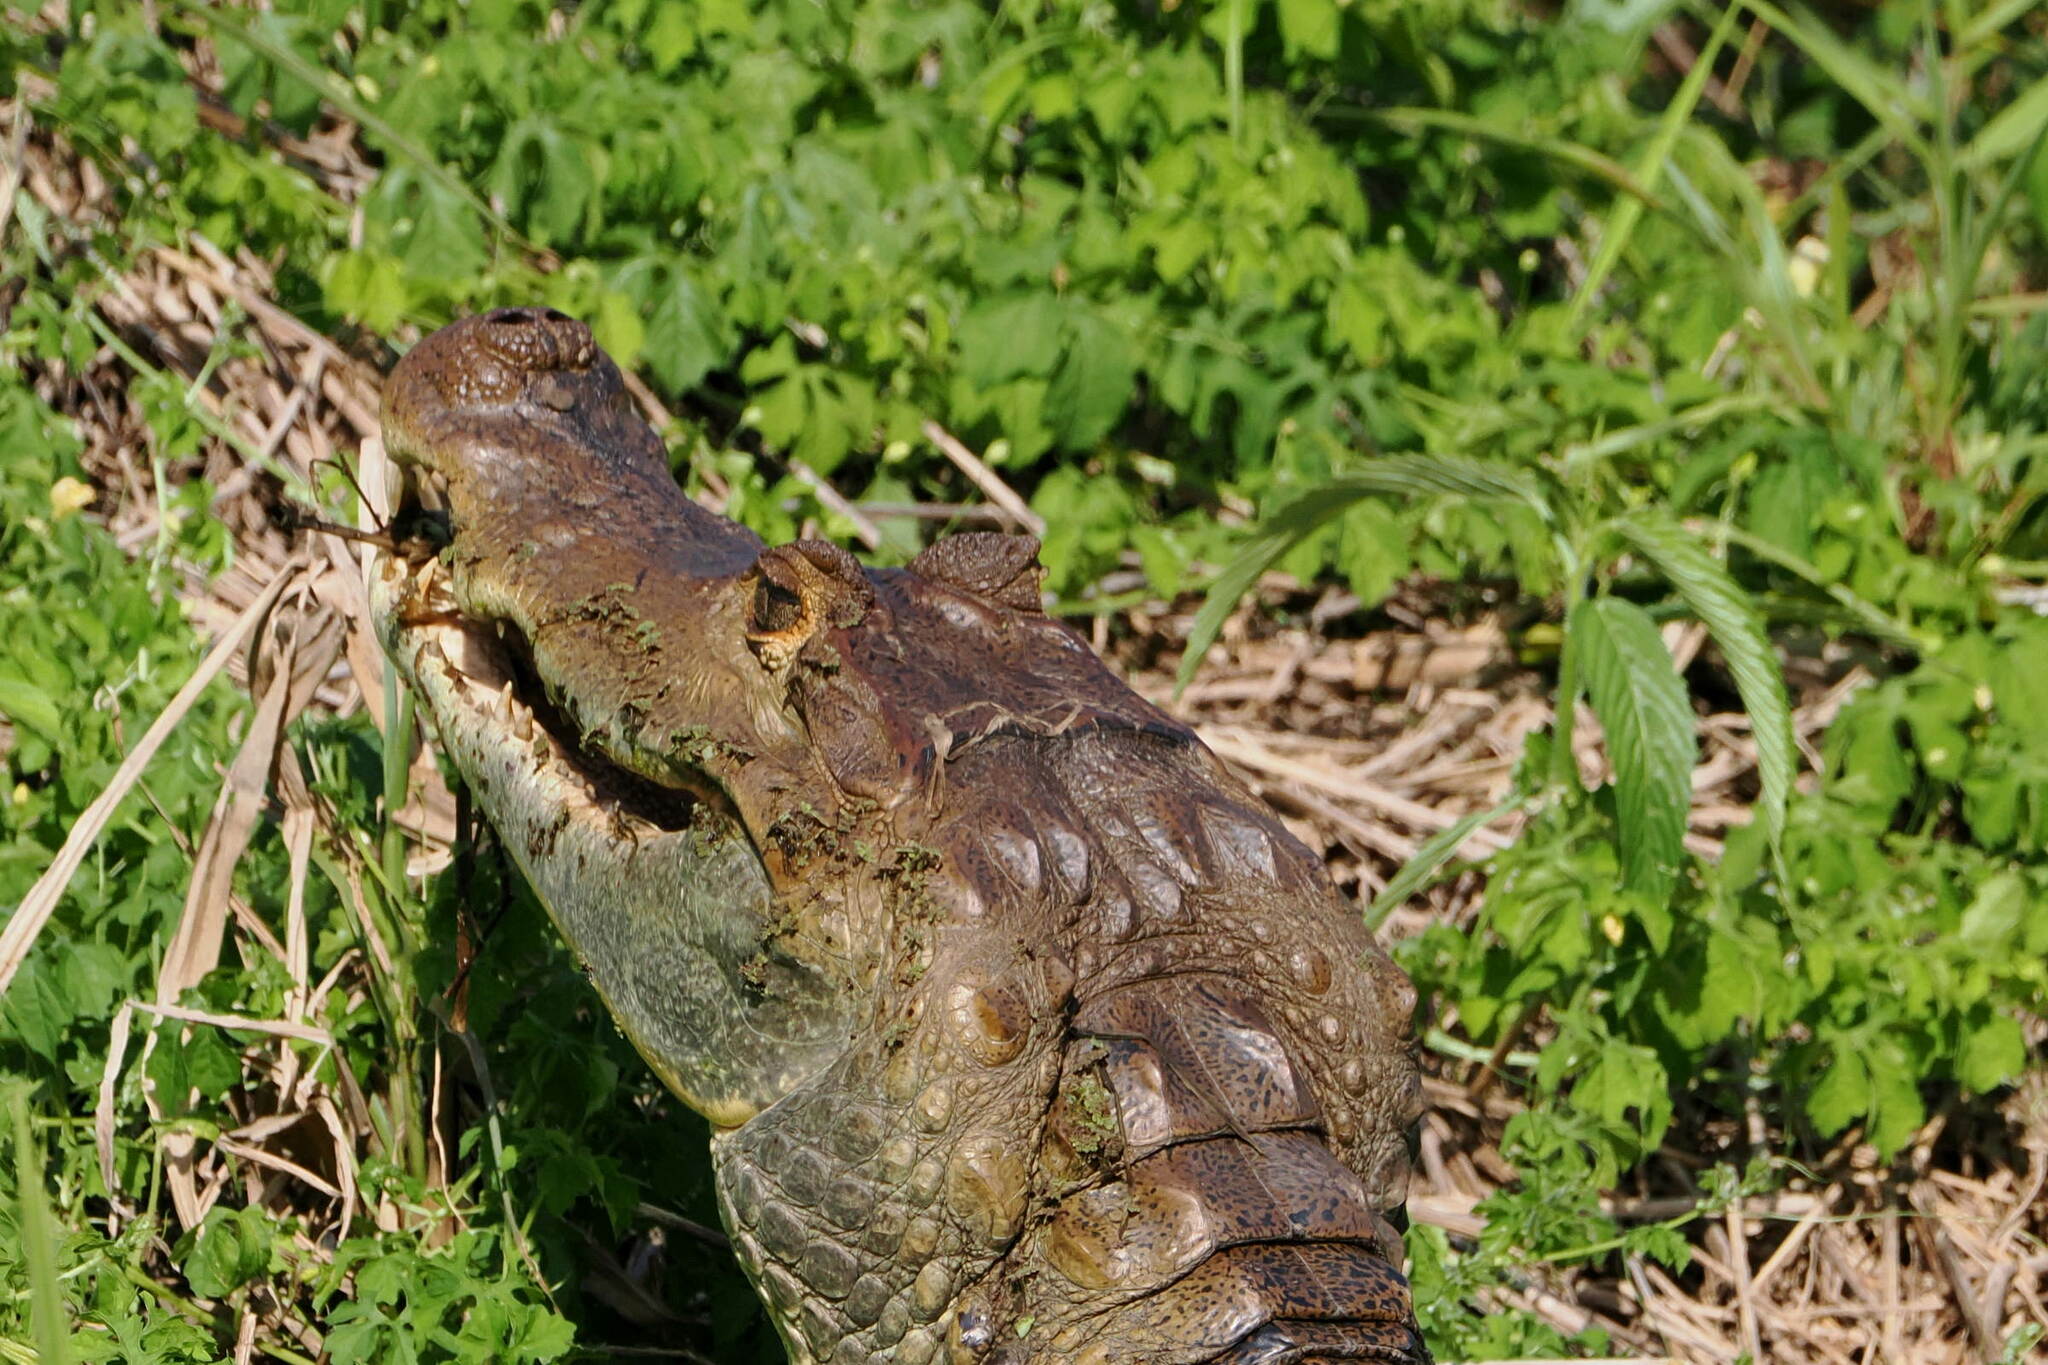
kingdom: Animalia
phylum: Chordata
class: Crocodylia
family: Alligatoridae
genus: Caiman
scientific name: Caiman crocodilus
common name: Common caiman
